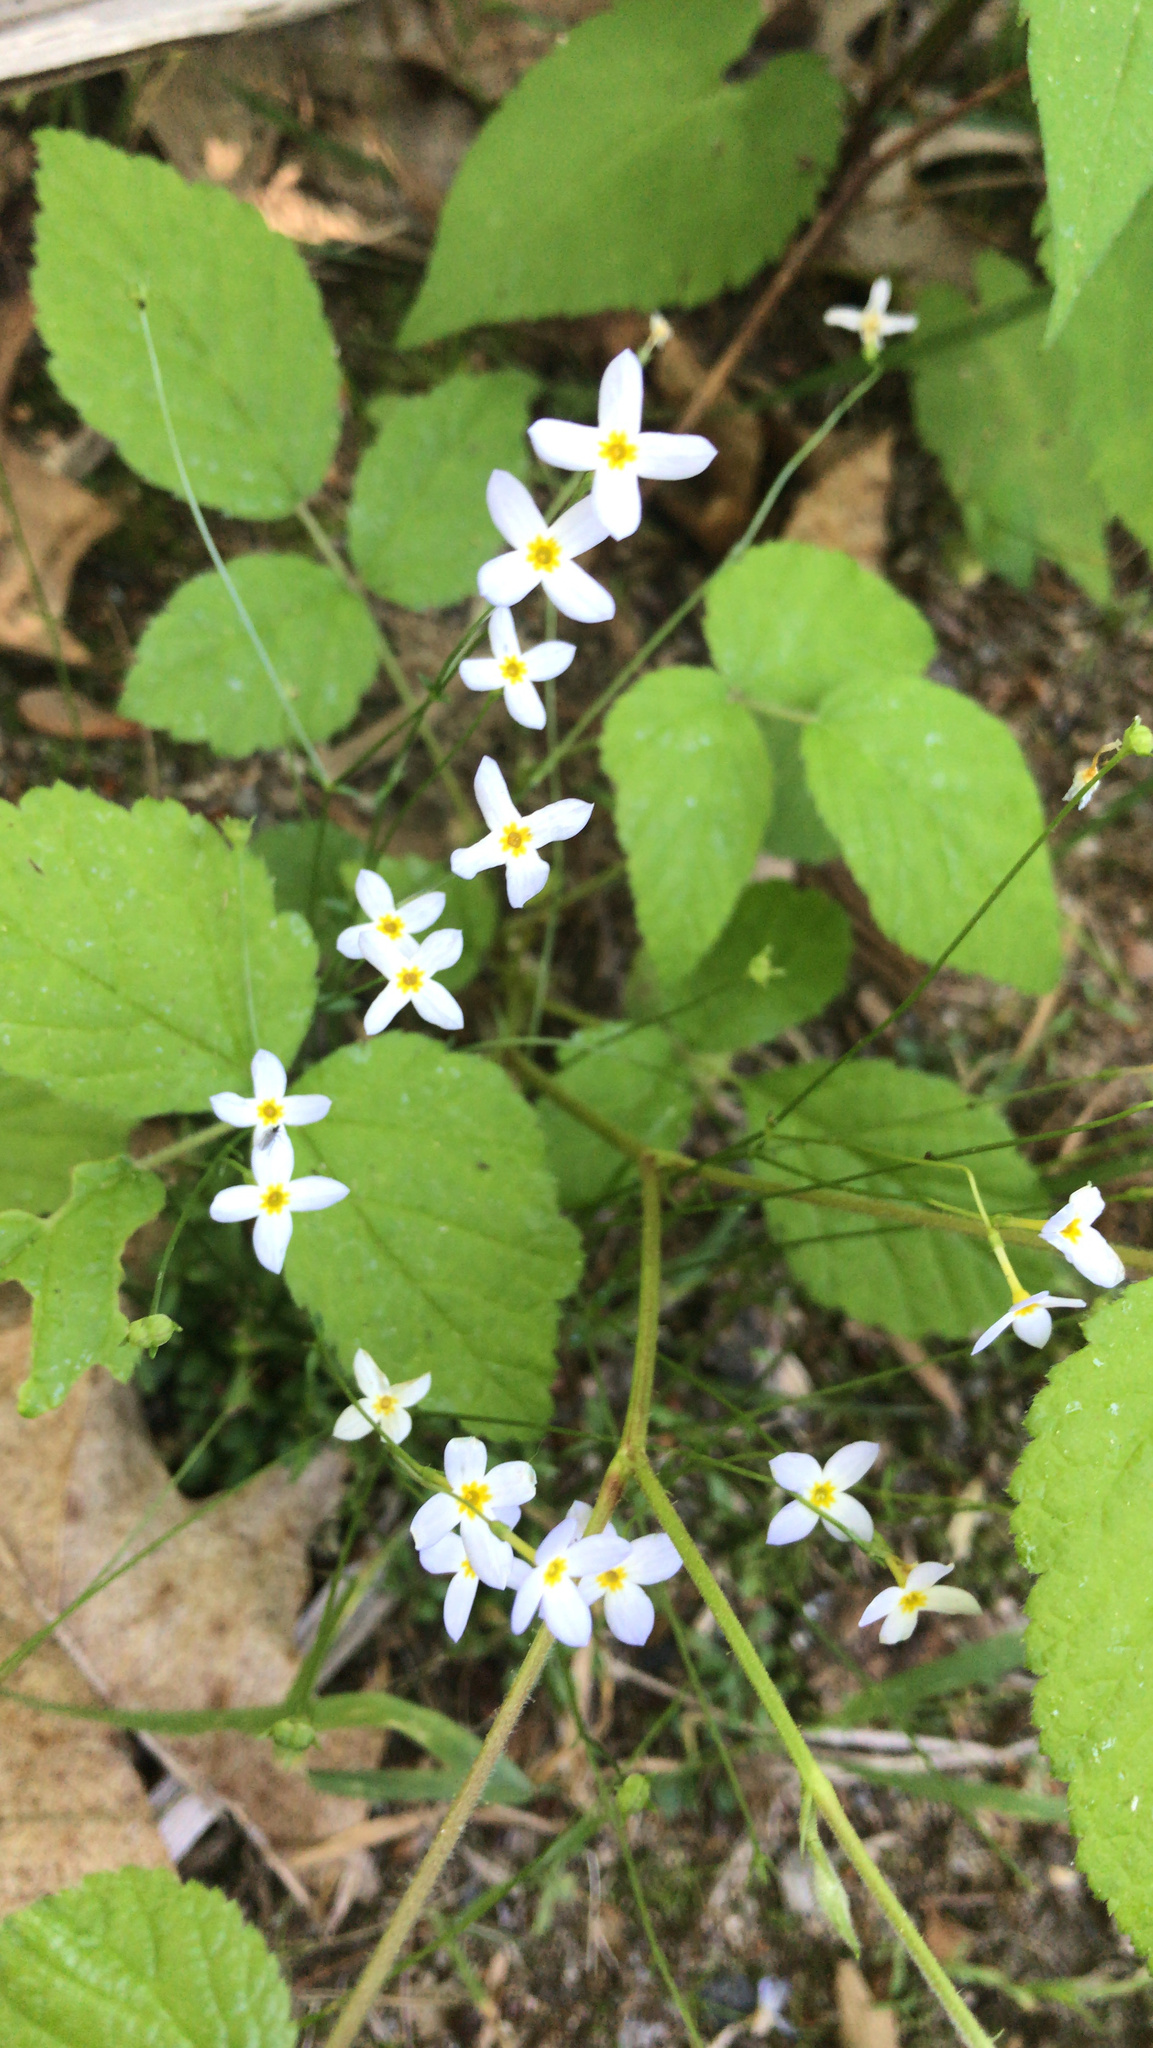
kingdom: Plantae
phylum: Tracheophyta
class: Magnoliopsida
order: Gentianales
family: Rubiaceae
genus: Houstonia
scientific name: Houstonia caerulea
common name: Bluets
